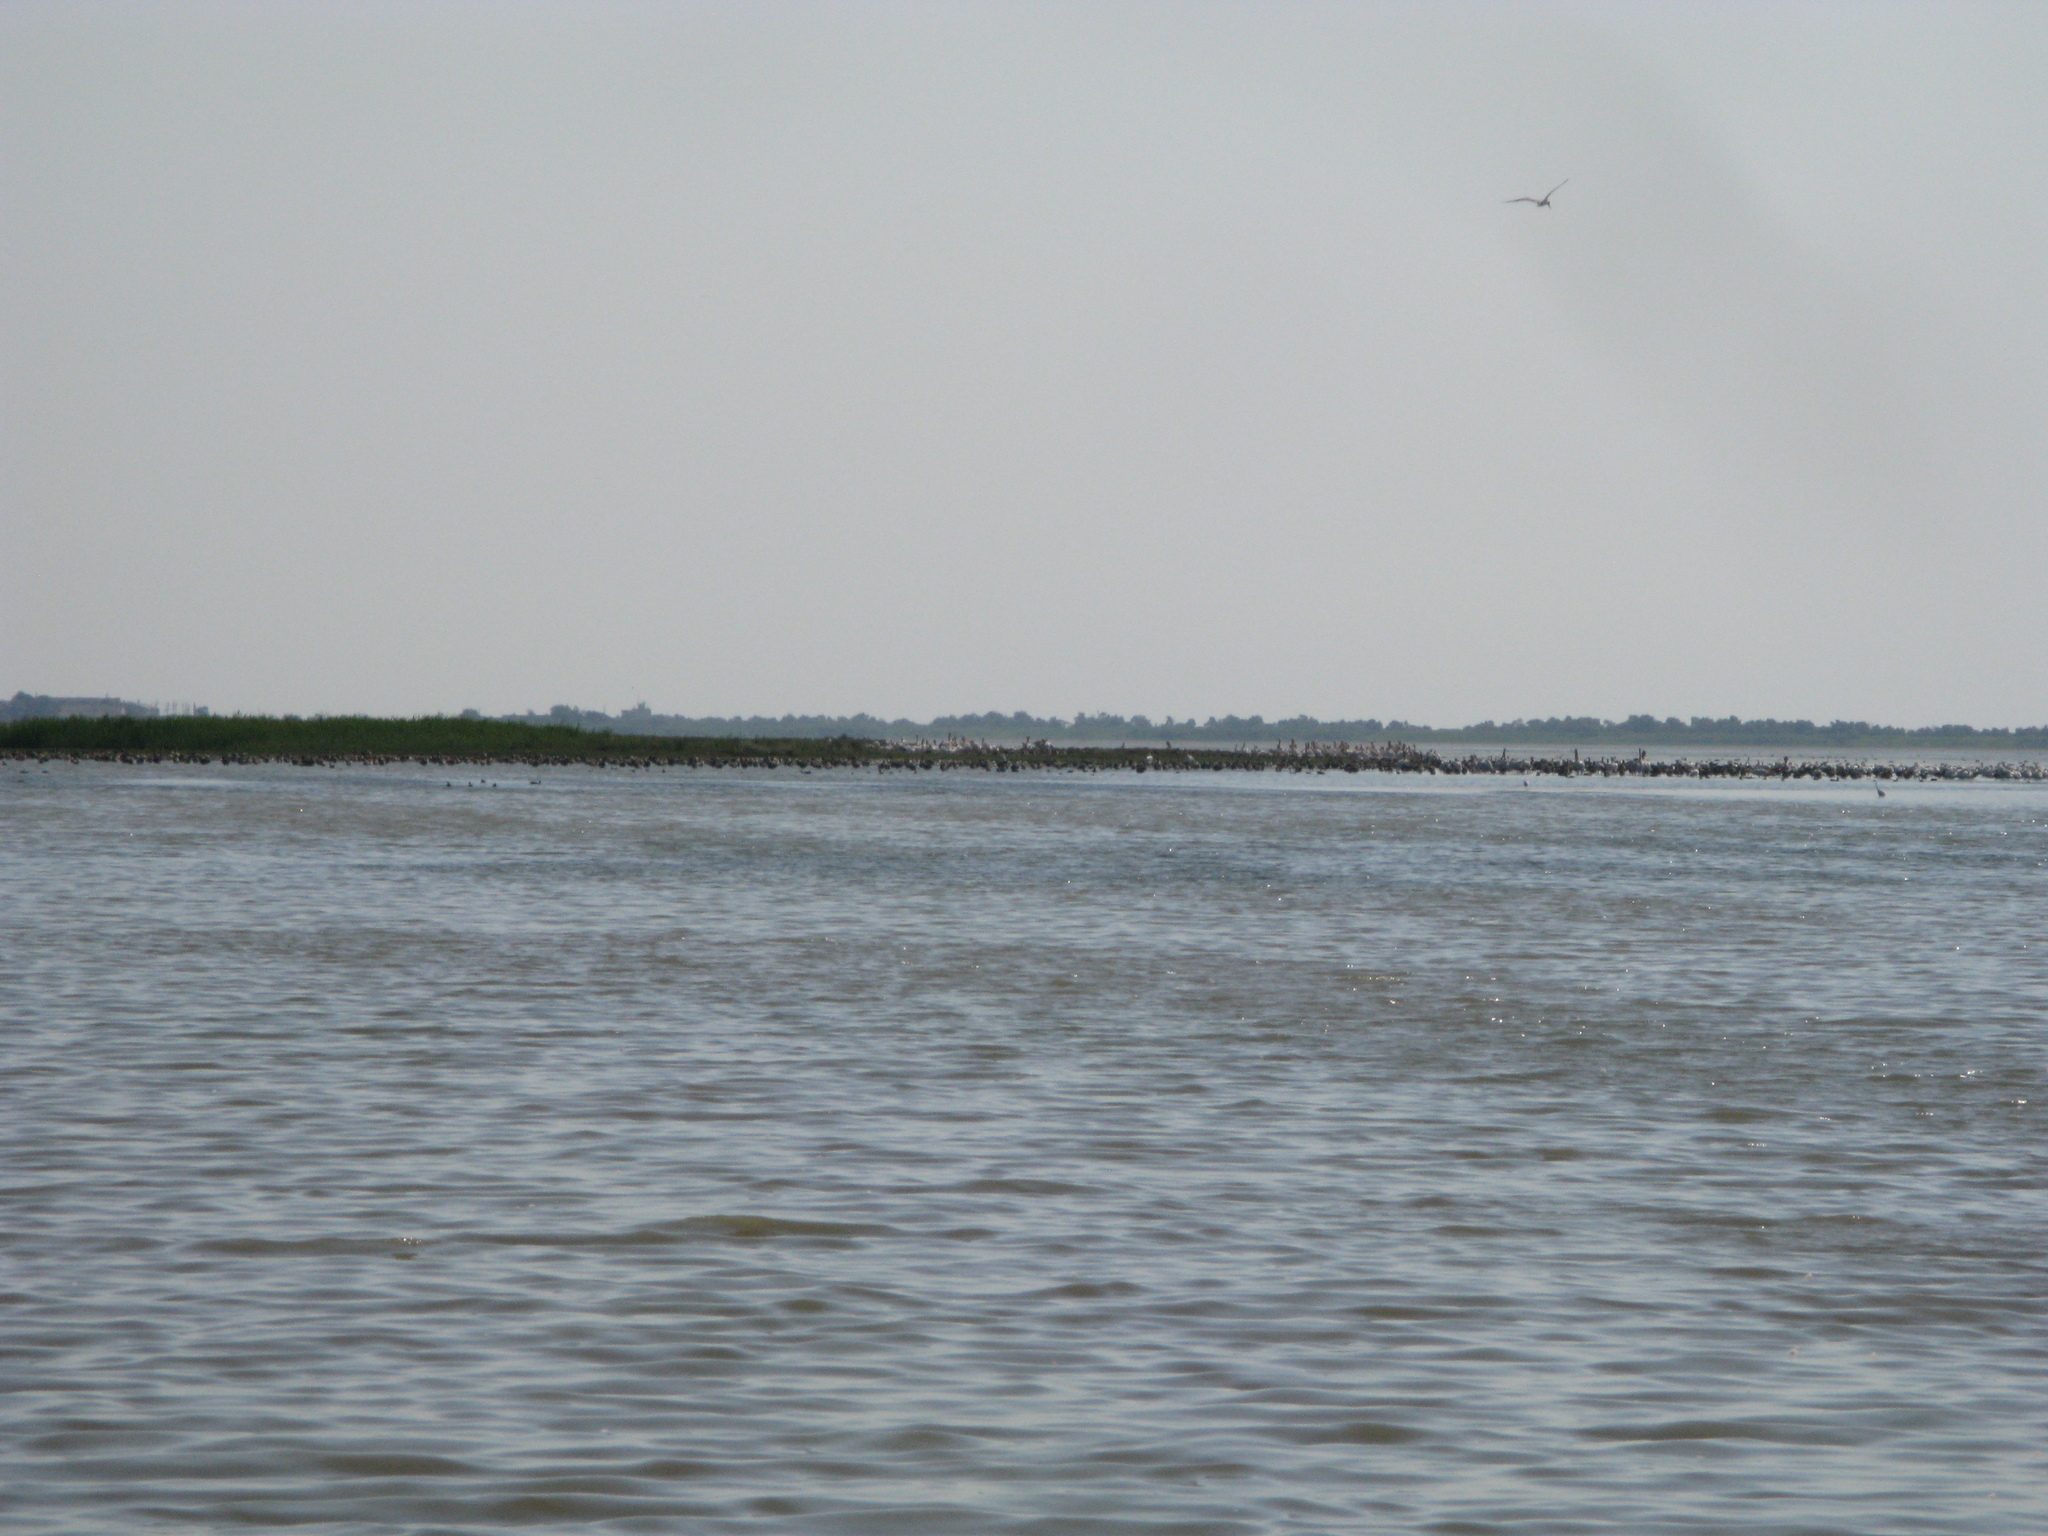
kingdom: Animalia
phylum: Chordata
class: Aves
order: Pelecaniformes
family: Pelecanidae
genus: Pelecanus
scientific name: Pelecanus onocrotalus
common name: Great white pelican
